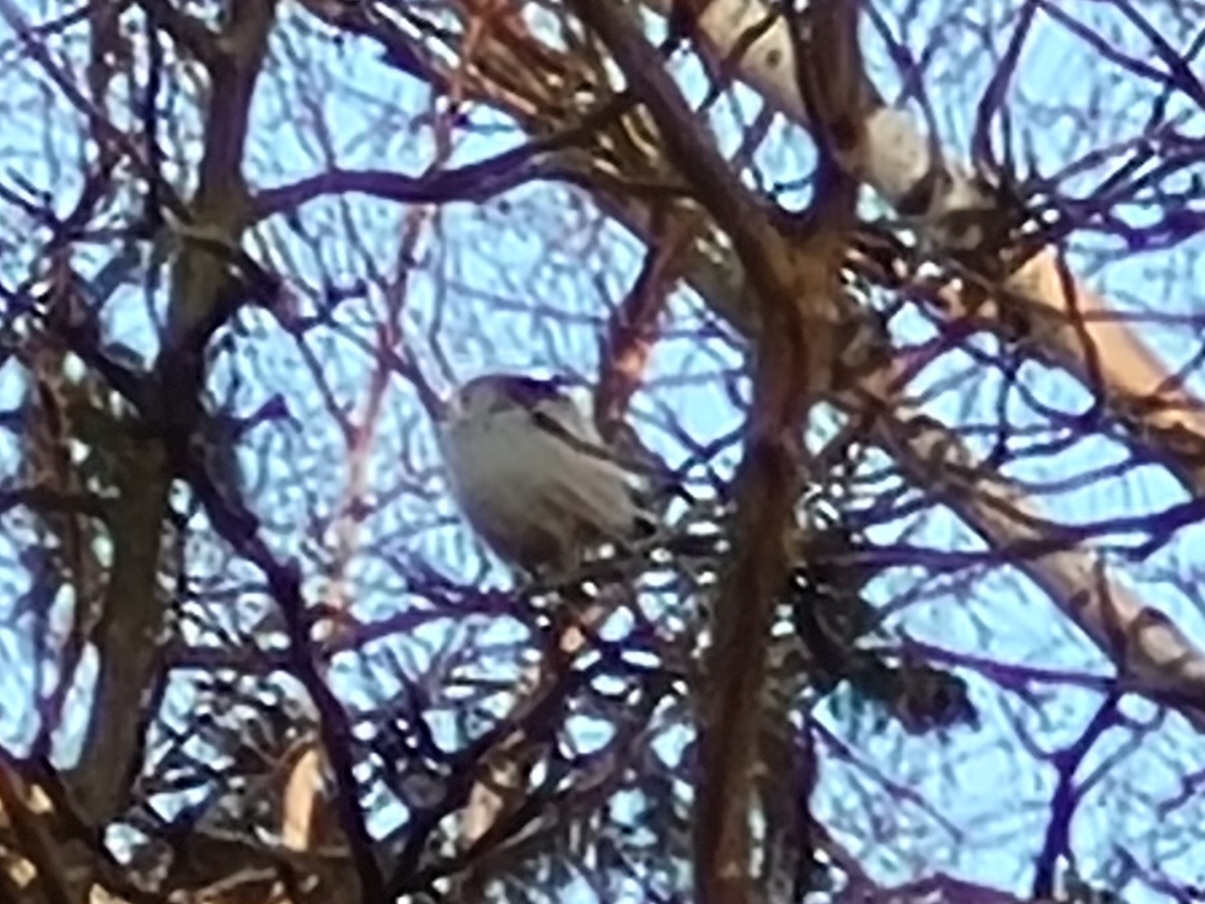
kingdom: Animalia
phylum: Chordata
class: Aves
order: Passeriformes
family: Aegithalidae
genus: Aegithalos
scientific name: Aegithalos caudatus
